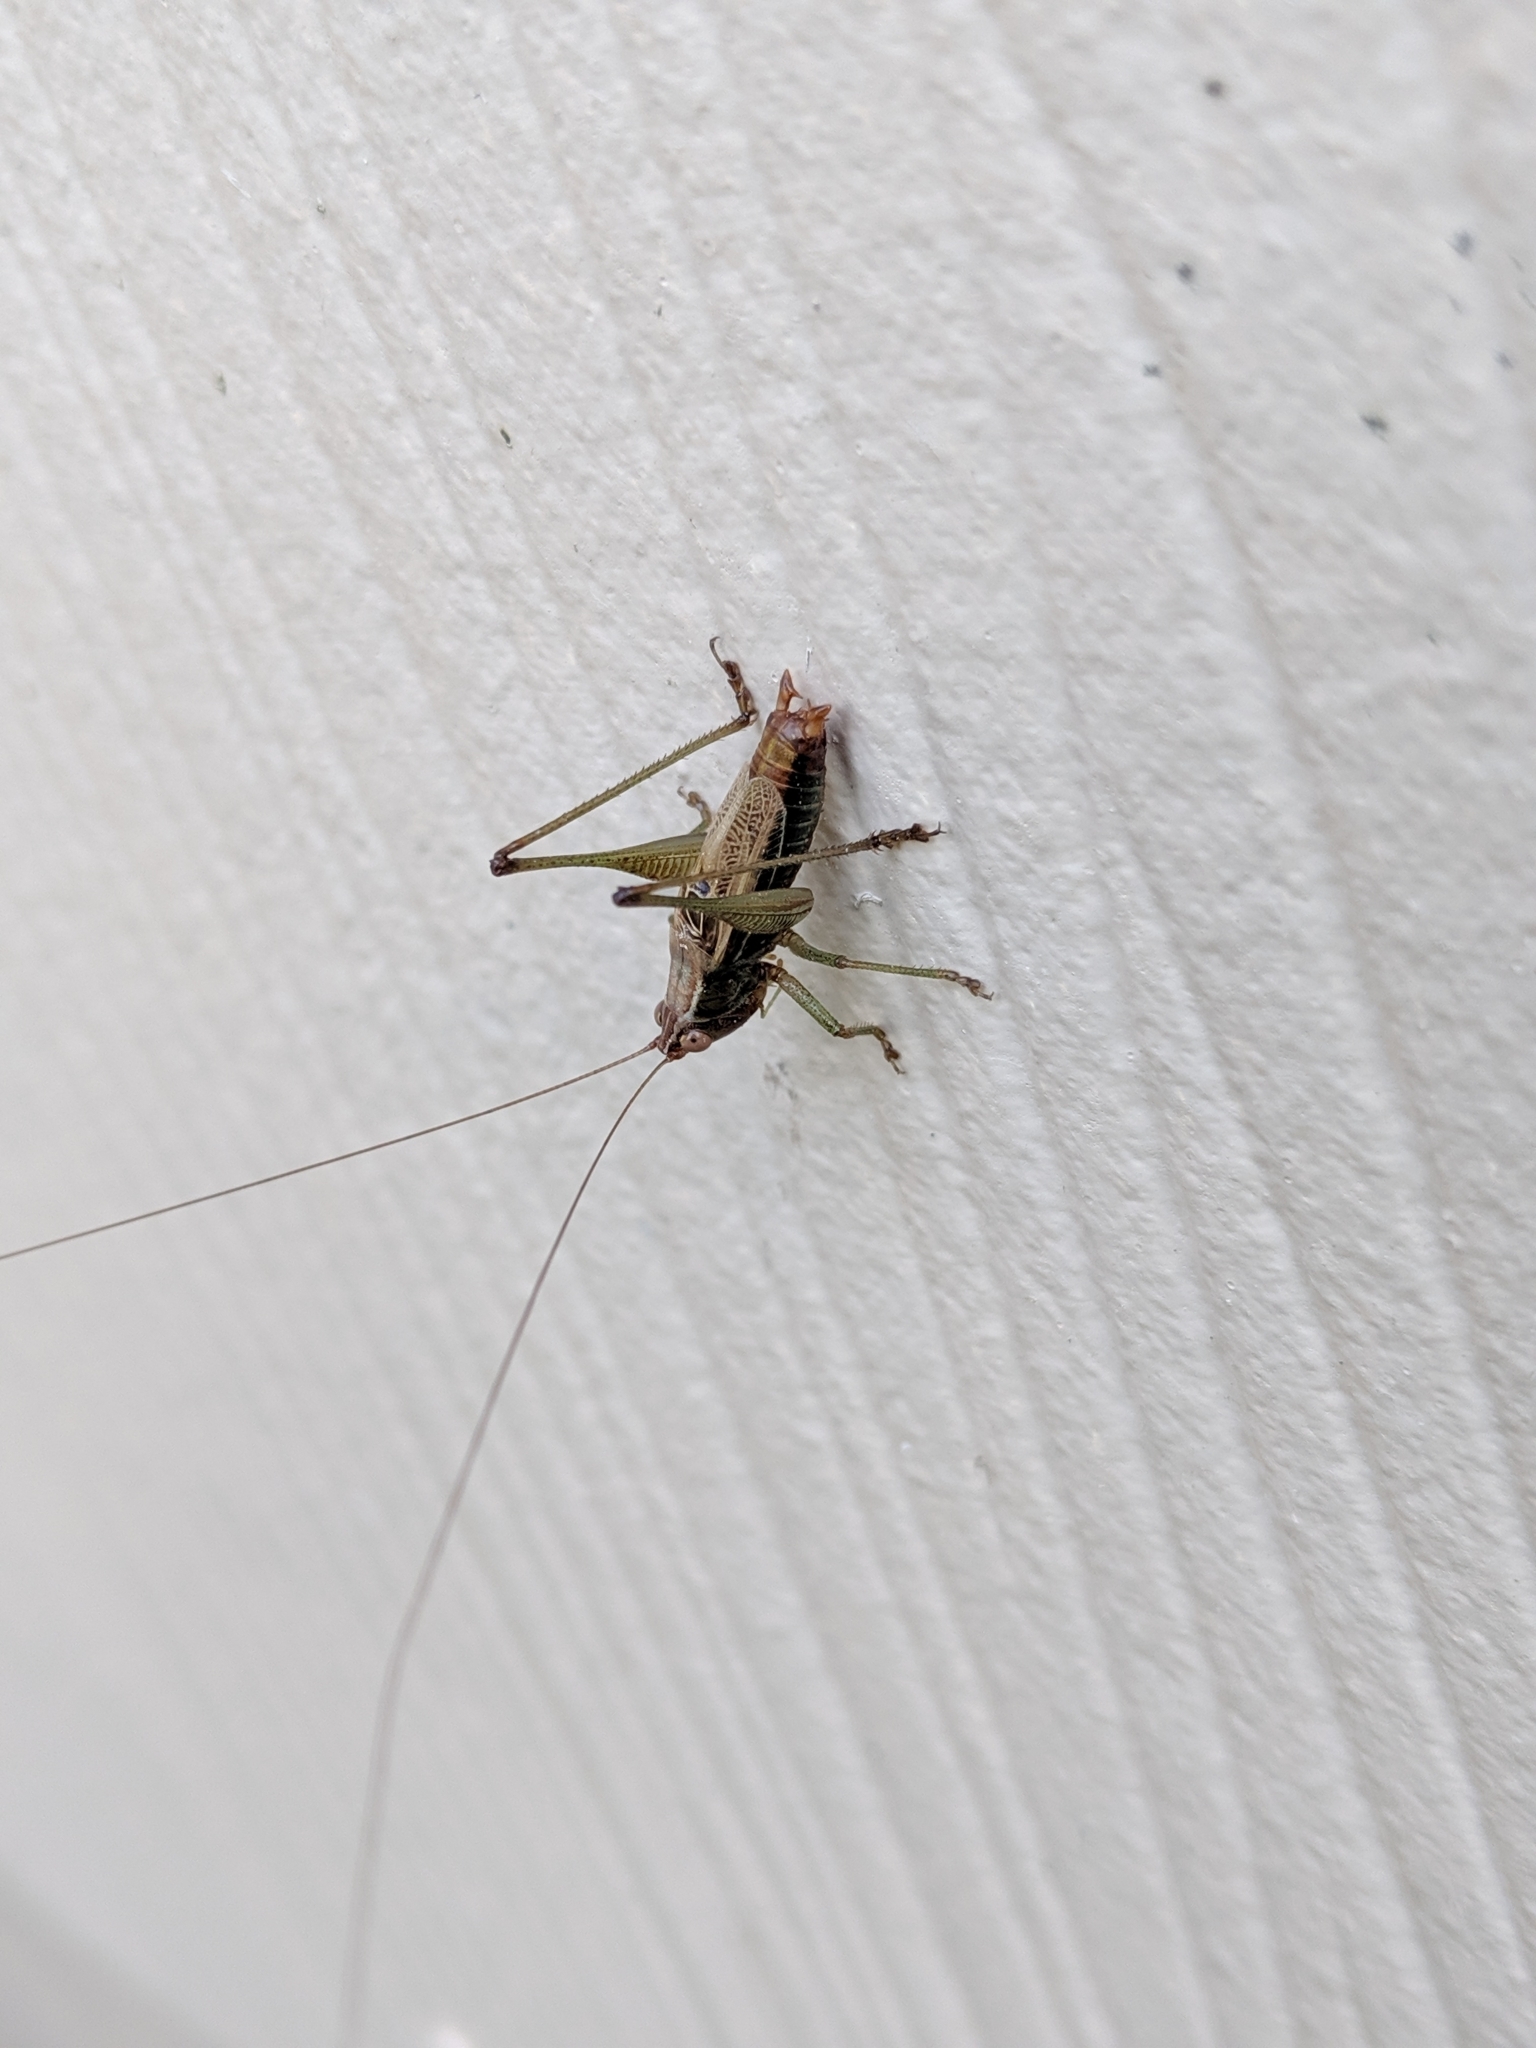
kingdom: Animalia
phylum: Arthropoda
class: Insecta
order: Orthoptera
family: Tettigoniidae
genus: Conocephalus
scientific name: Conocephalus nemoralis
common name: Woodland meadow katydid
